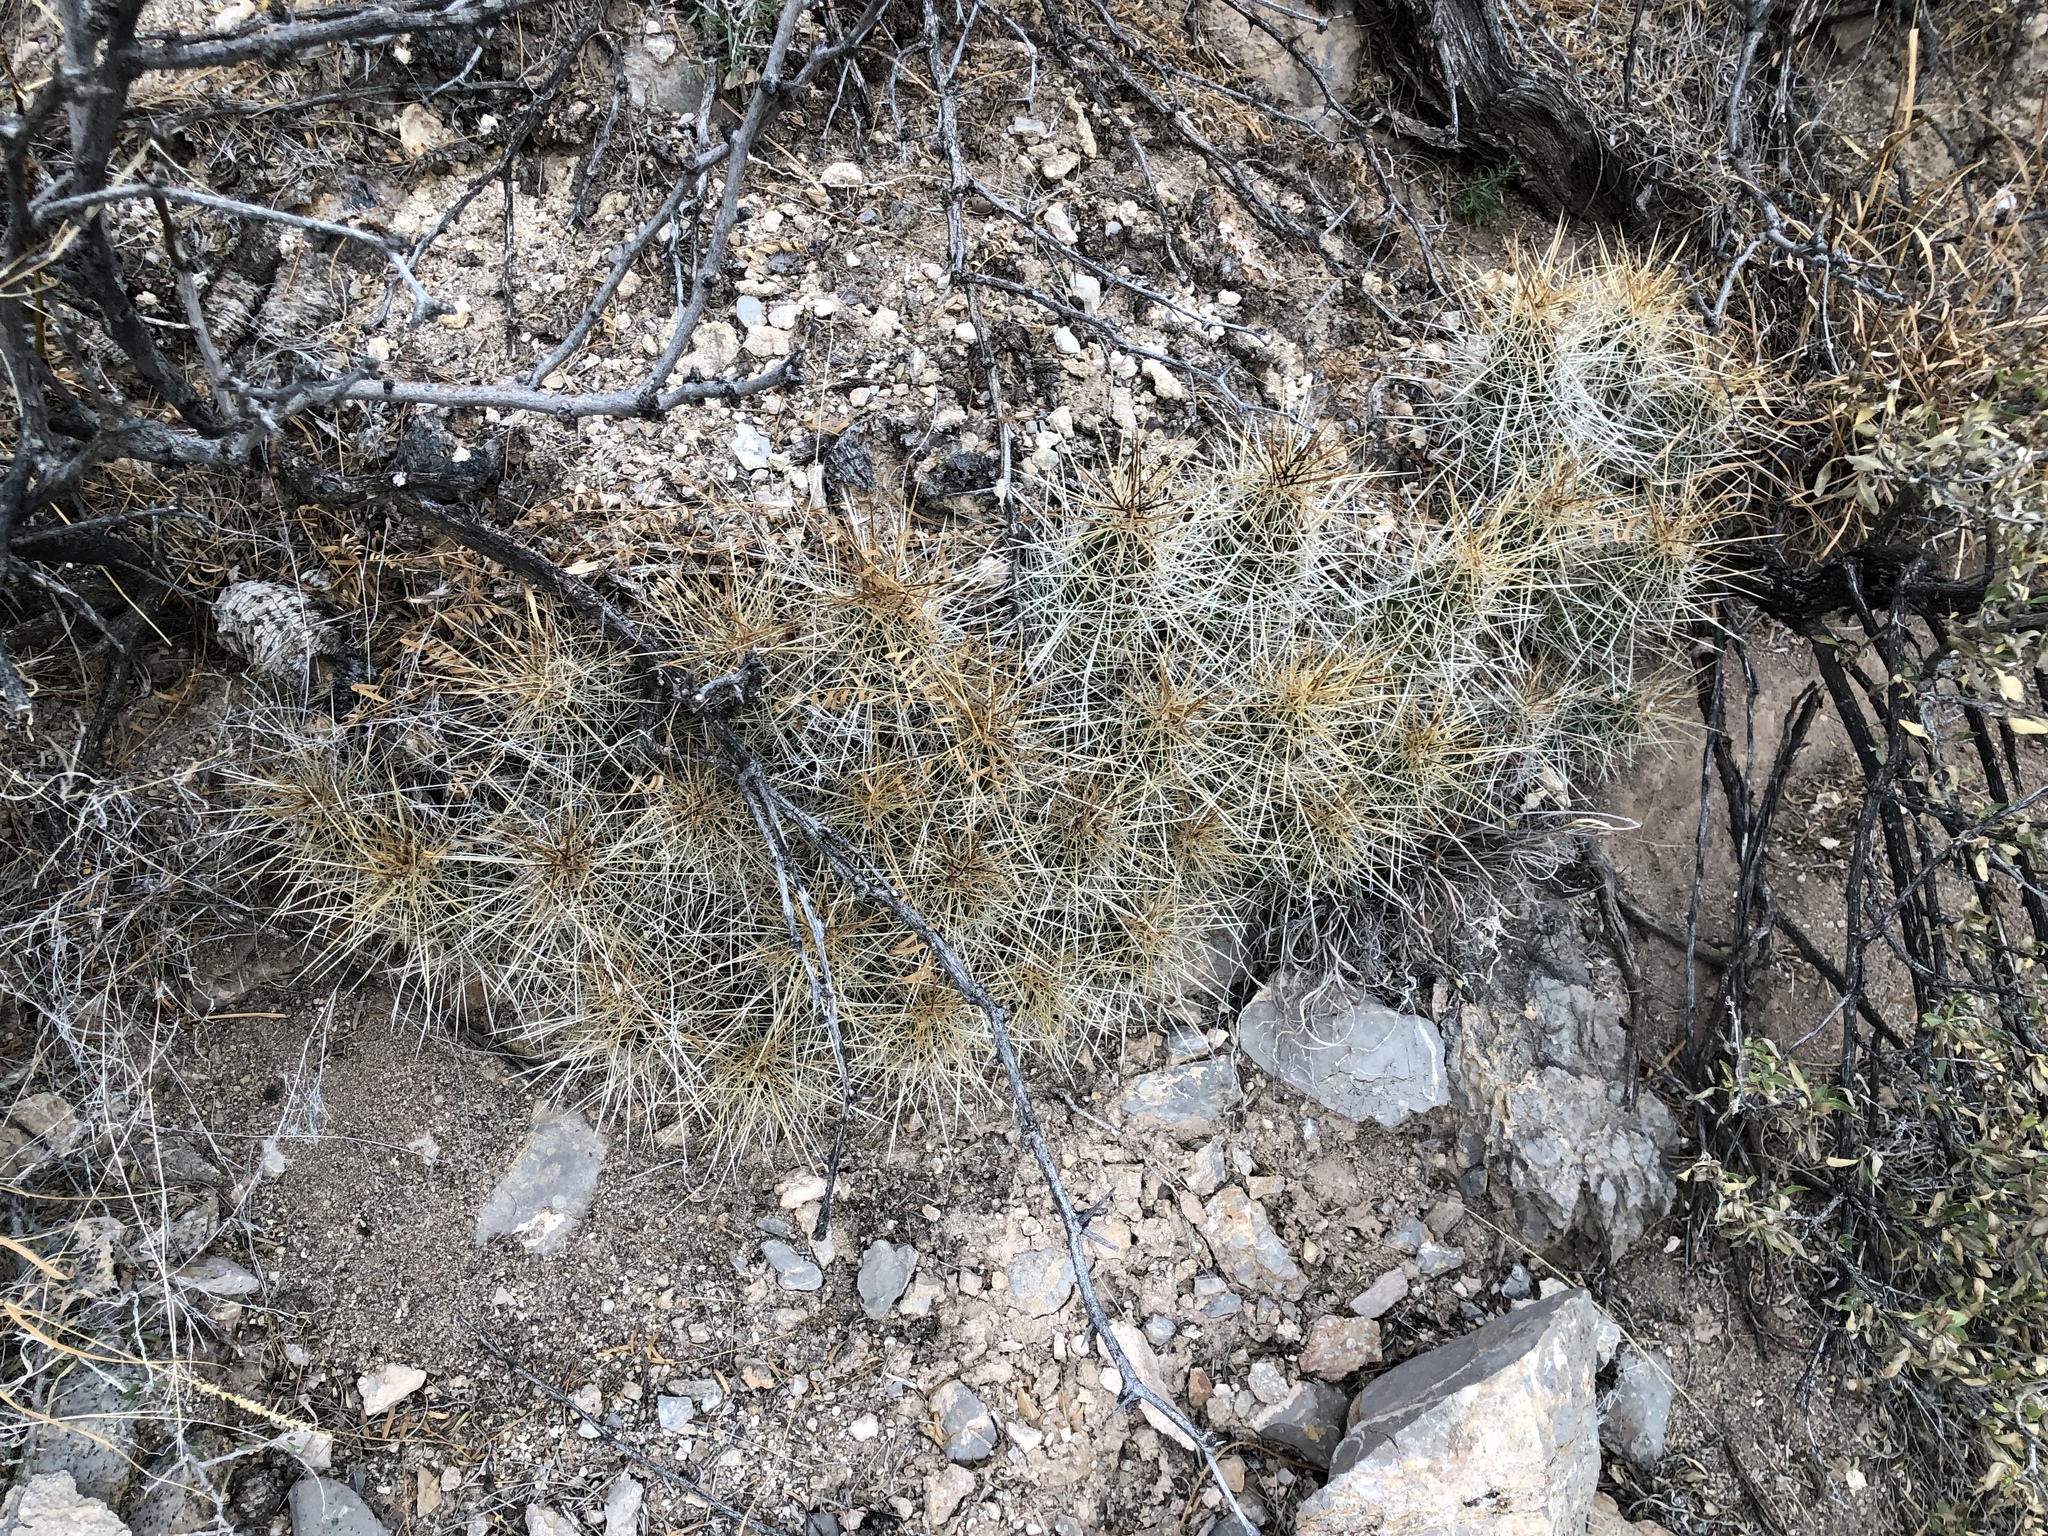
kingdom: Plantae
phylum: Tracheophyta
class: Magnoliopsida
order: Caryophyllales
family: Cactaceae
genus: Echinocereus
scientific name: Echinocereus stramineus
